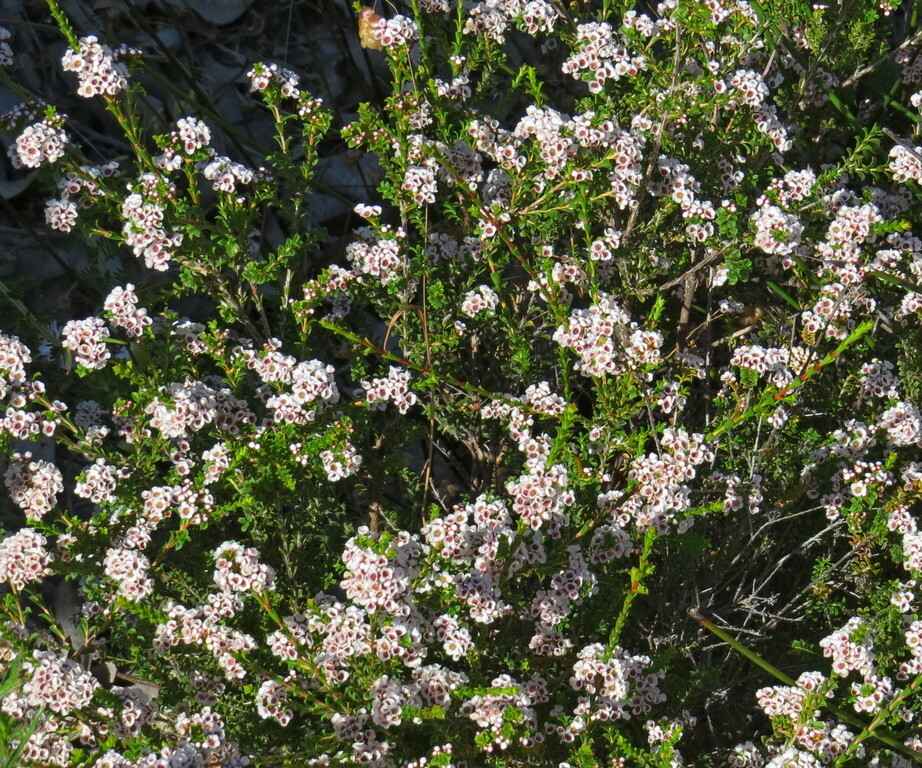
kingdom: Plantae
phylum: Tracheophyta
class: Magnoliopsida
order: Myrtales
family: Myrtaceae
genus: Scholtzia
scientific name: Scholtzia obovata
